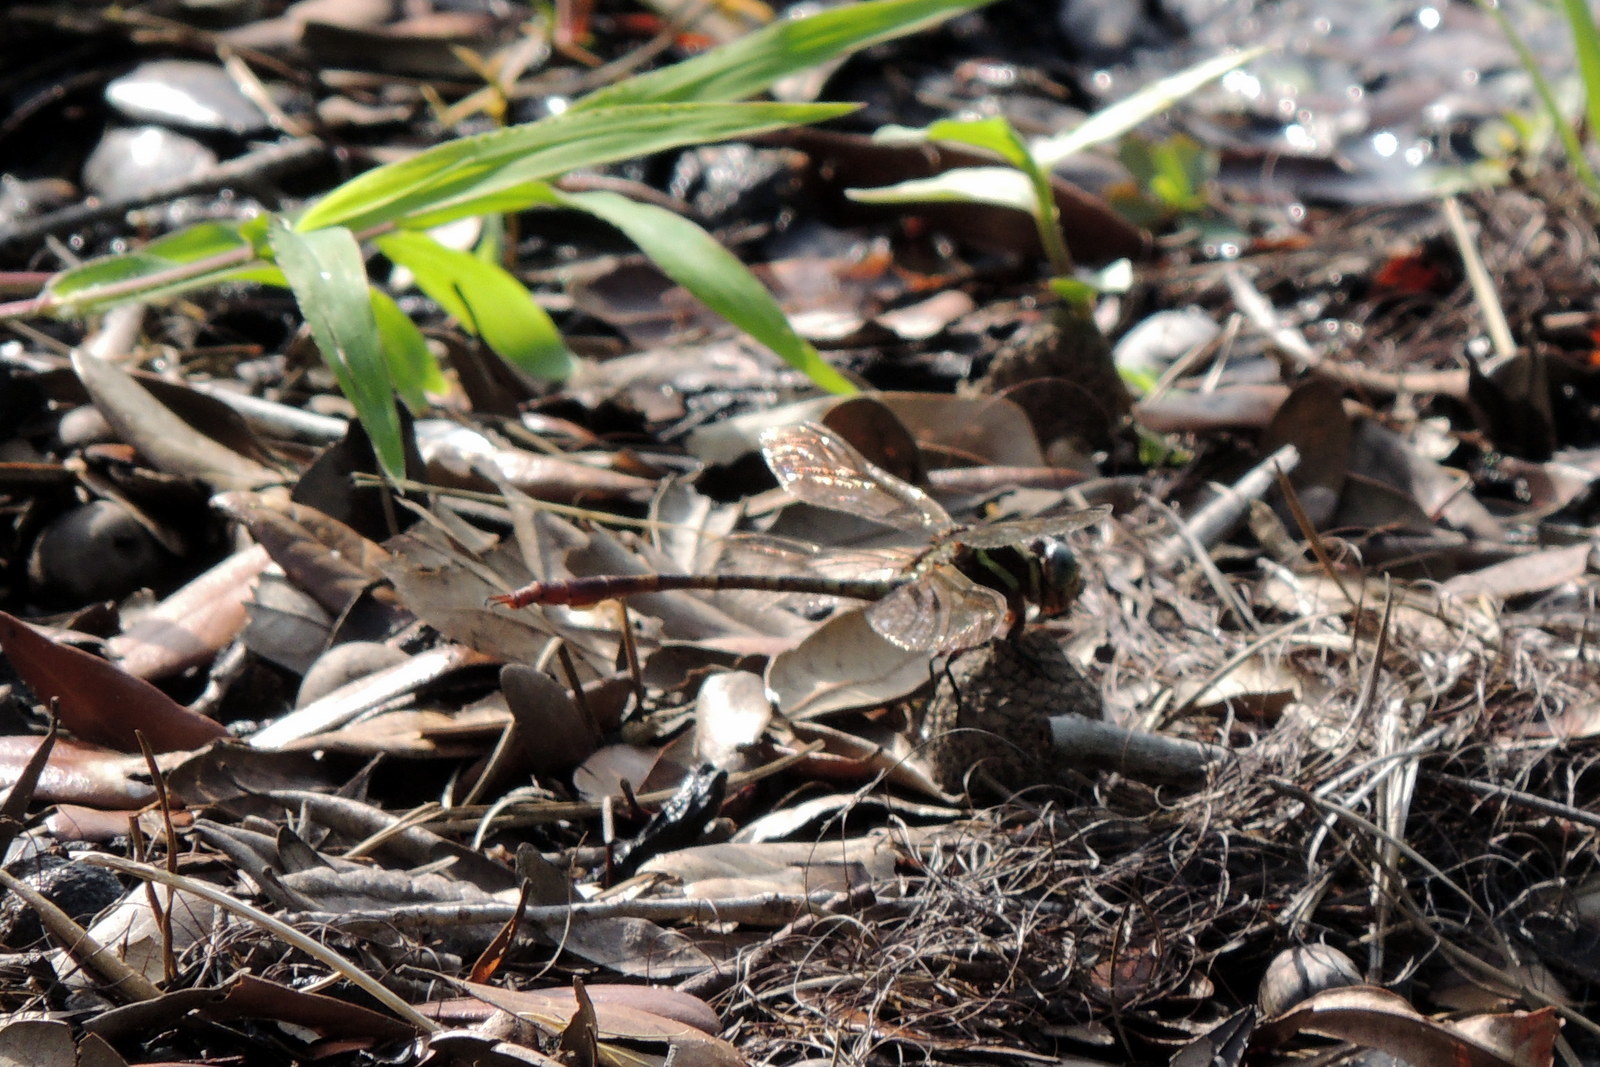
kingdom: Animalia
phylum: Arthropoda
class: Insecta
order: Odonata
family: Gomphidae
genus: Aphylla
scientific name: Aphylla williamsoni
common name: Two-striped forceptail
